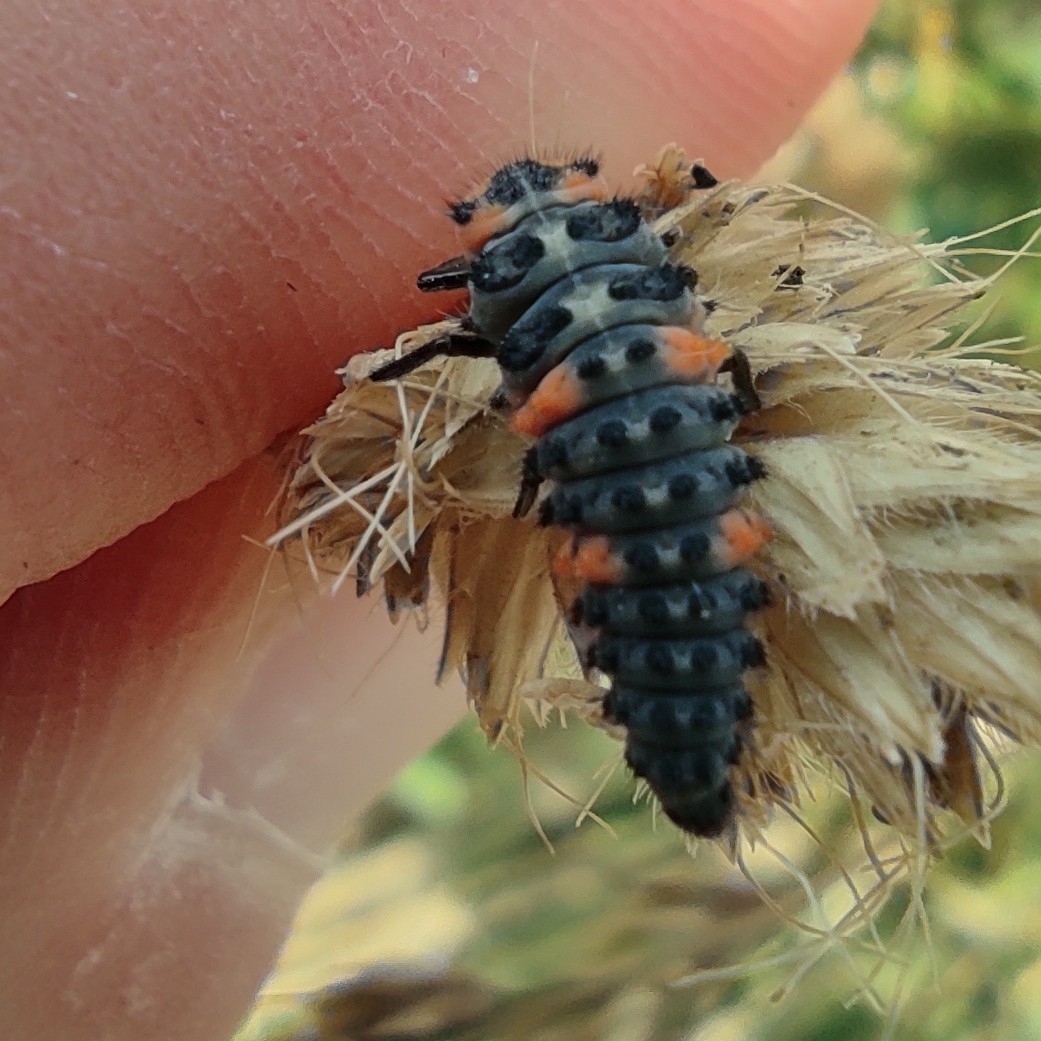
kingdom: Animalia
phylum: Arthropoda
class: Insecta
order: Coleoptera
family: Coccinellidae
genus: Coccinella
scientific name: Coccinella septempunctata
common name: Sevenspotted lady beetle
